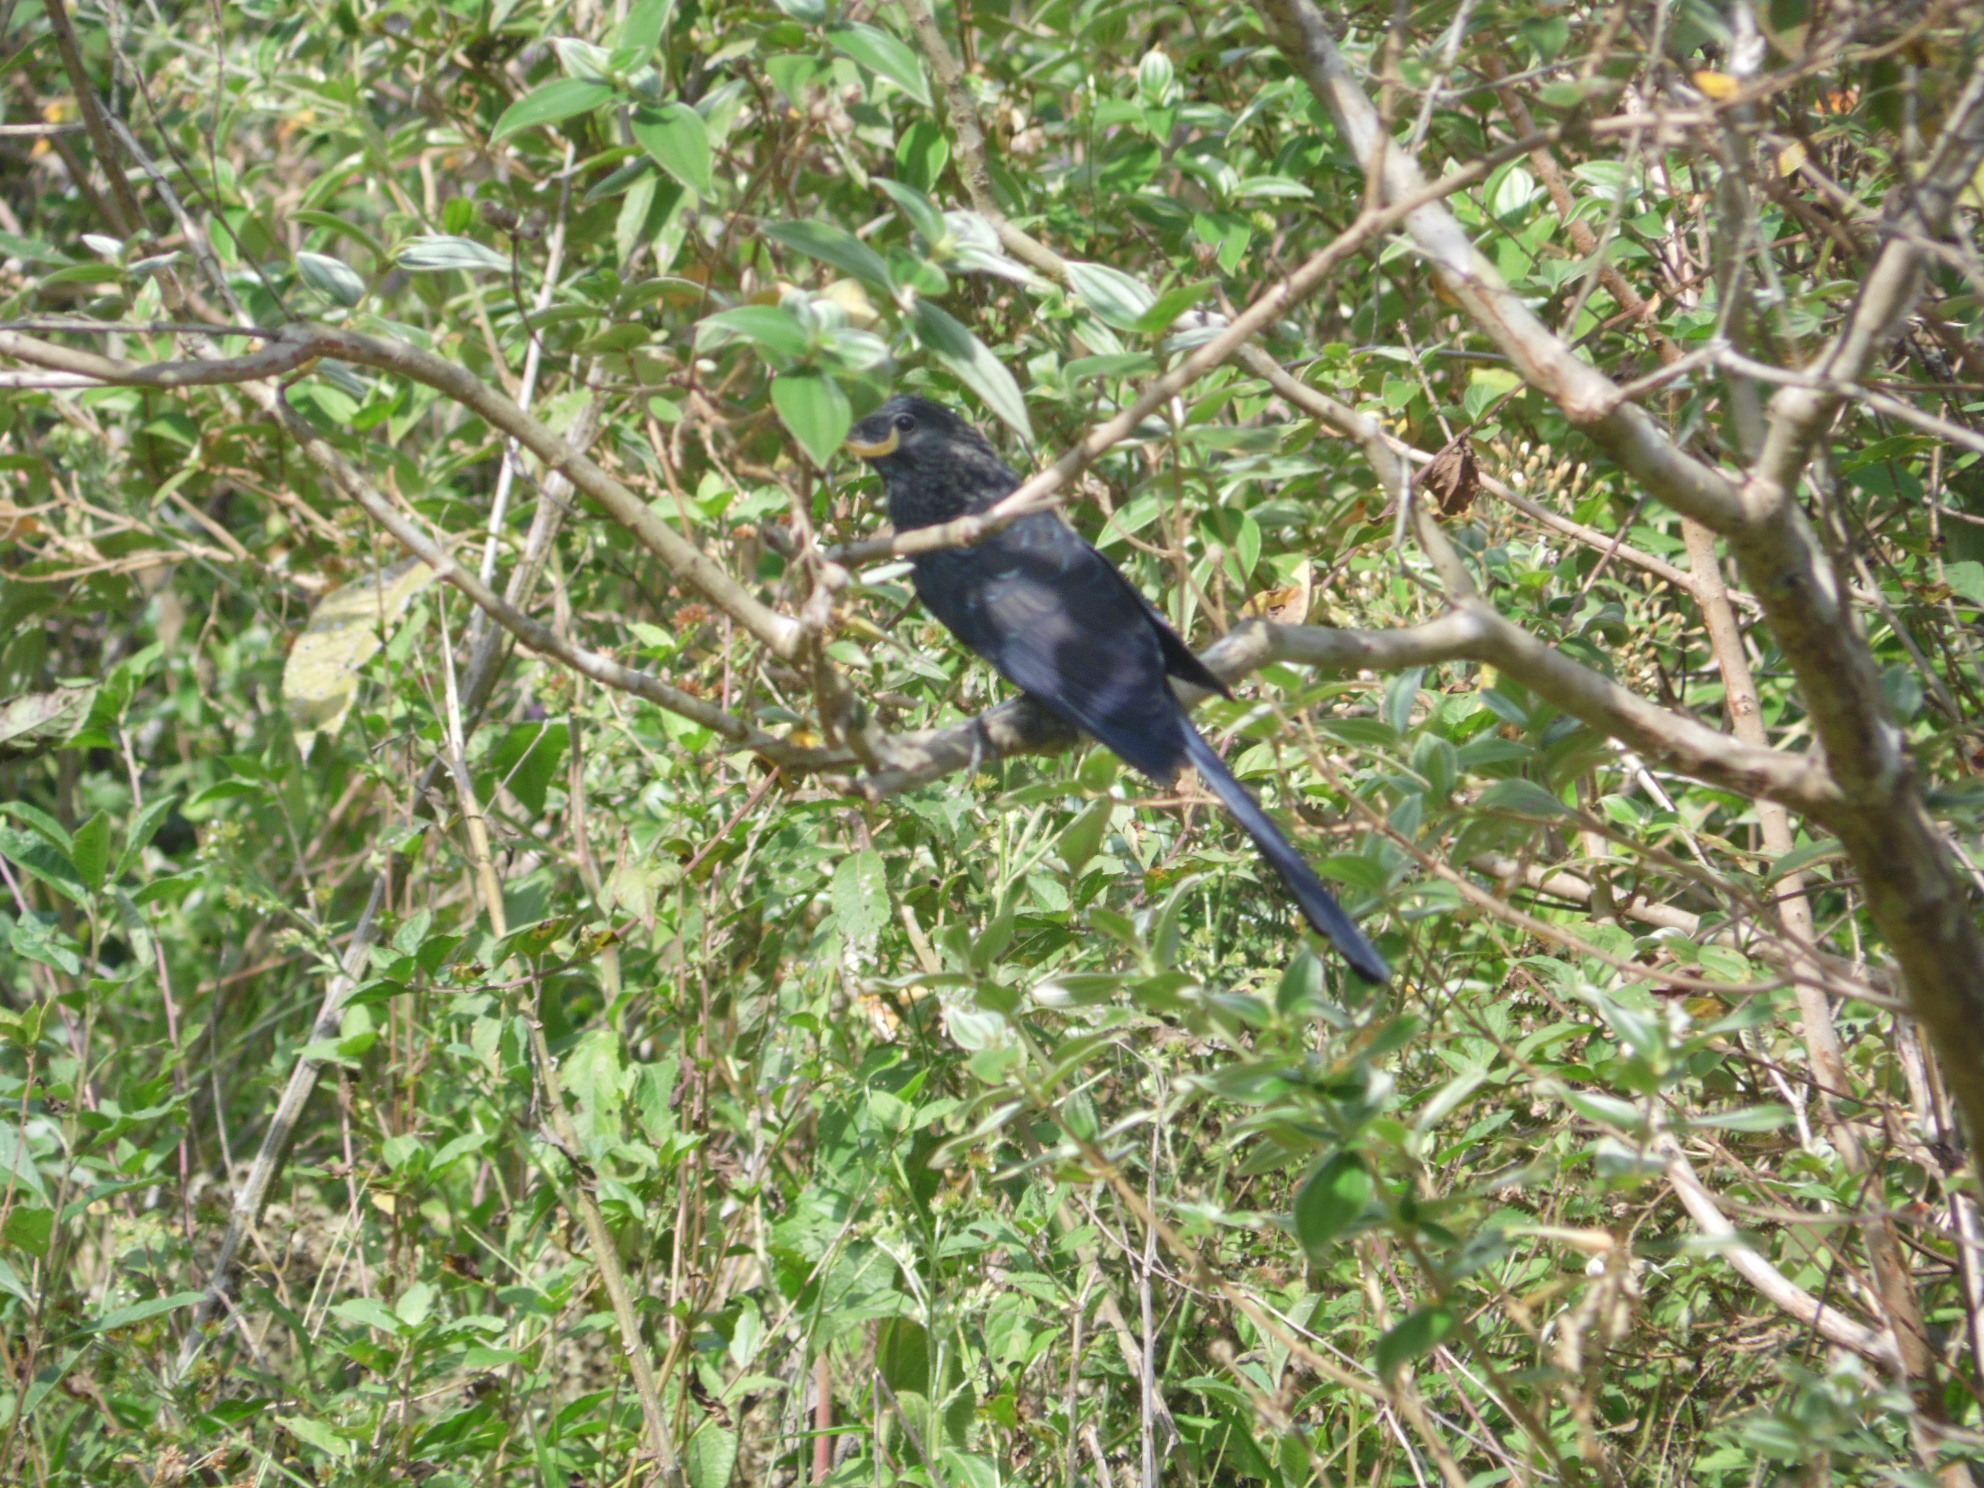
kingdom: Animalia
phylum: Chordata
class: Aves
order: Cuculiformes
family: Cuculidae
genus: Crotophaga
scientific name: Crotophaga ani
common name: Smooth-billed ani
